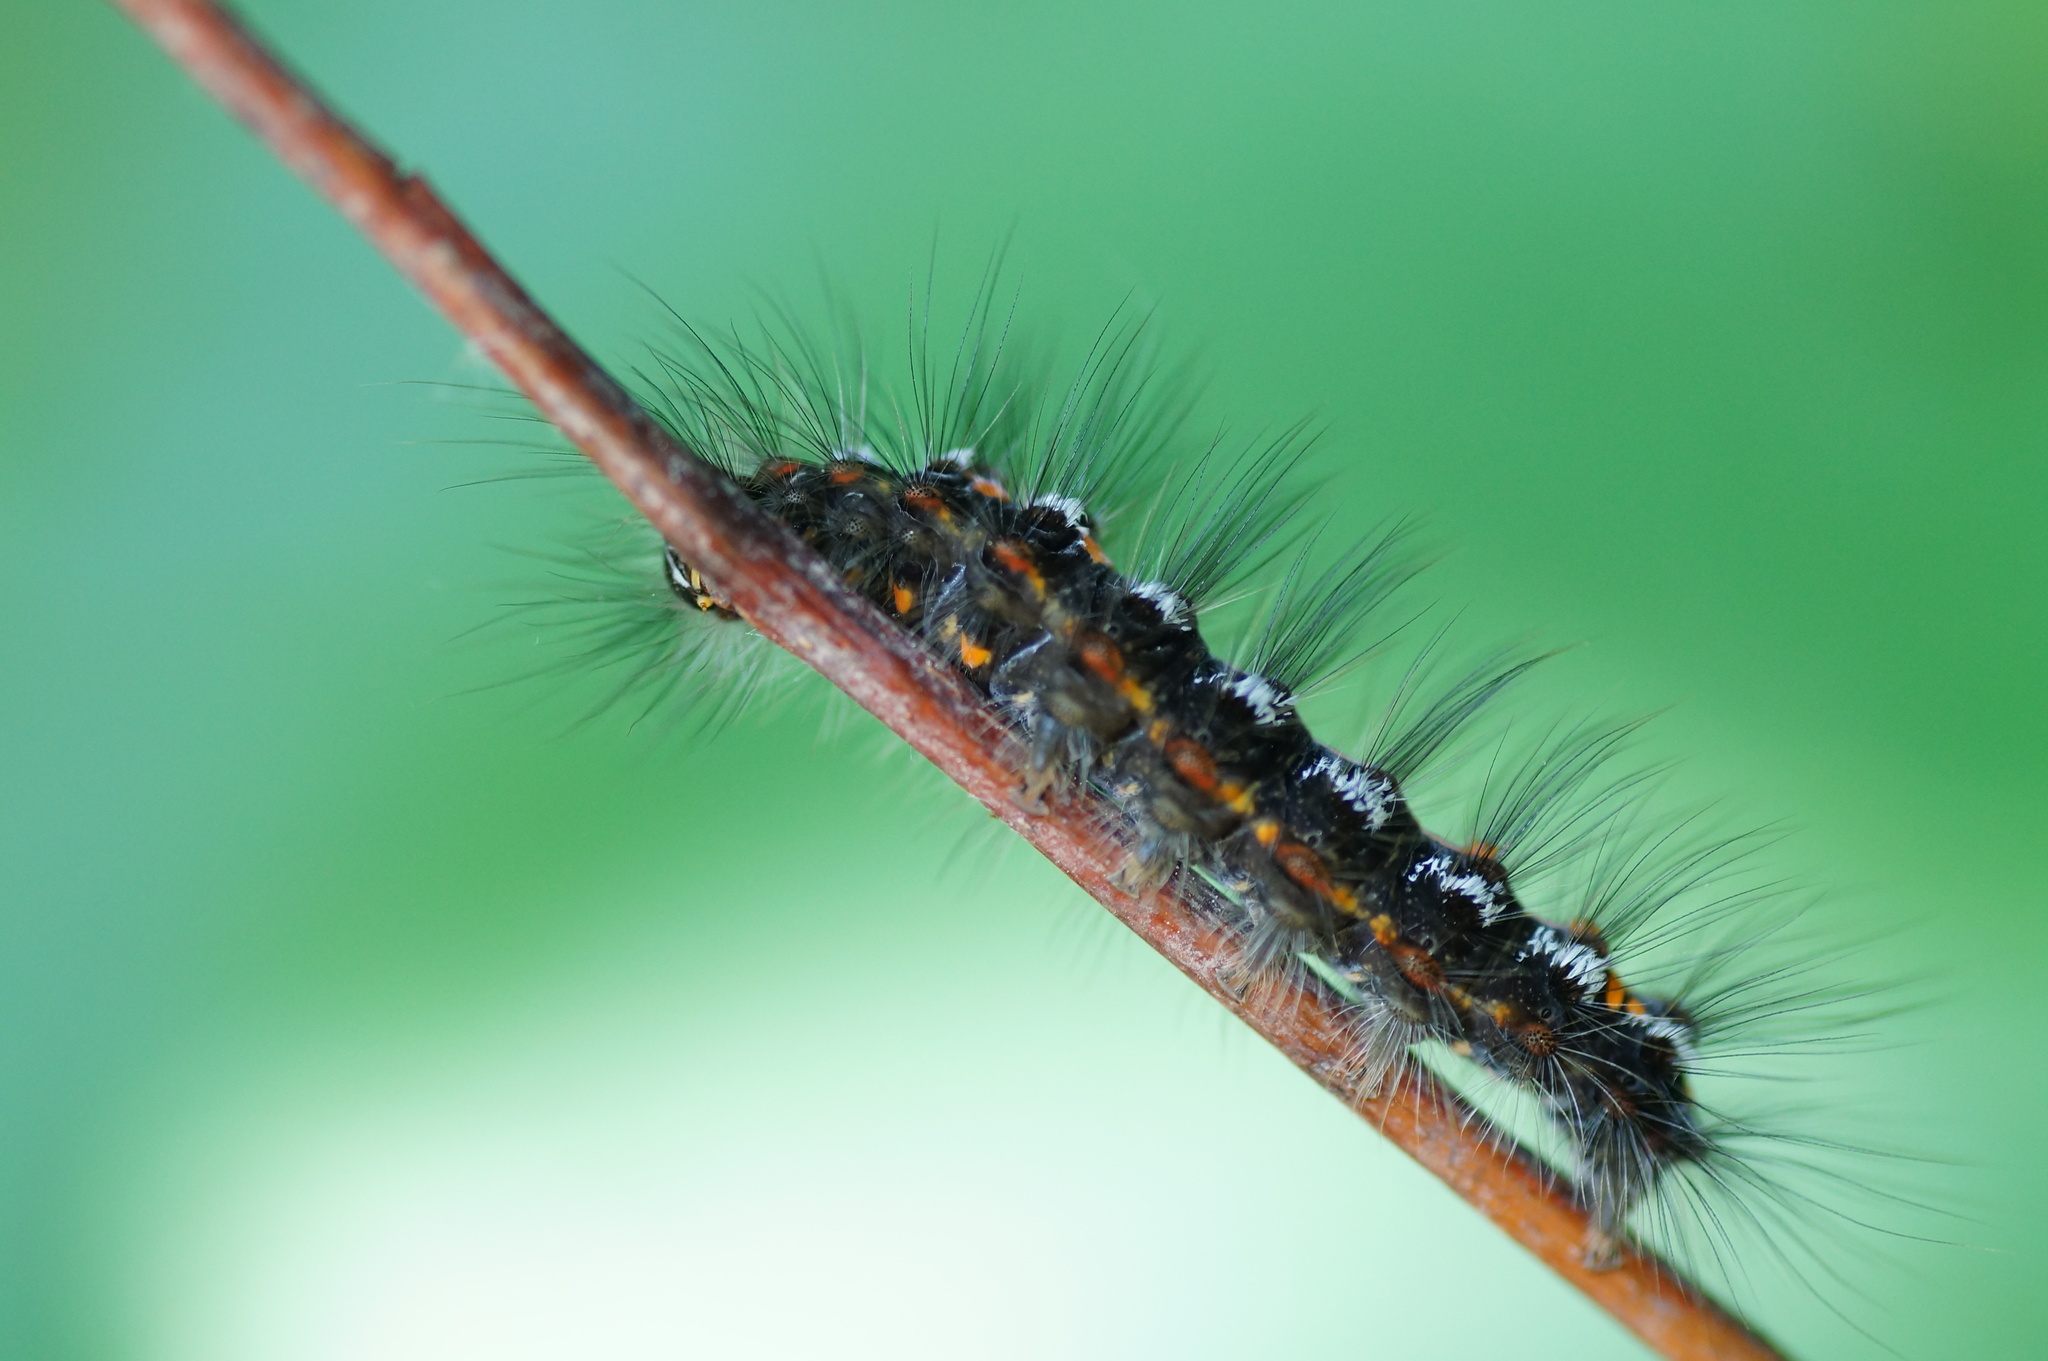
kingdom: Animalia
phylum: Arthropoda
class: Insecta
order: Lepidoptera
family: Erebidae
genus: Sphrageidus
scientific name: Sphrageidus similis
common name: Yellow-tail
